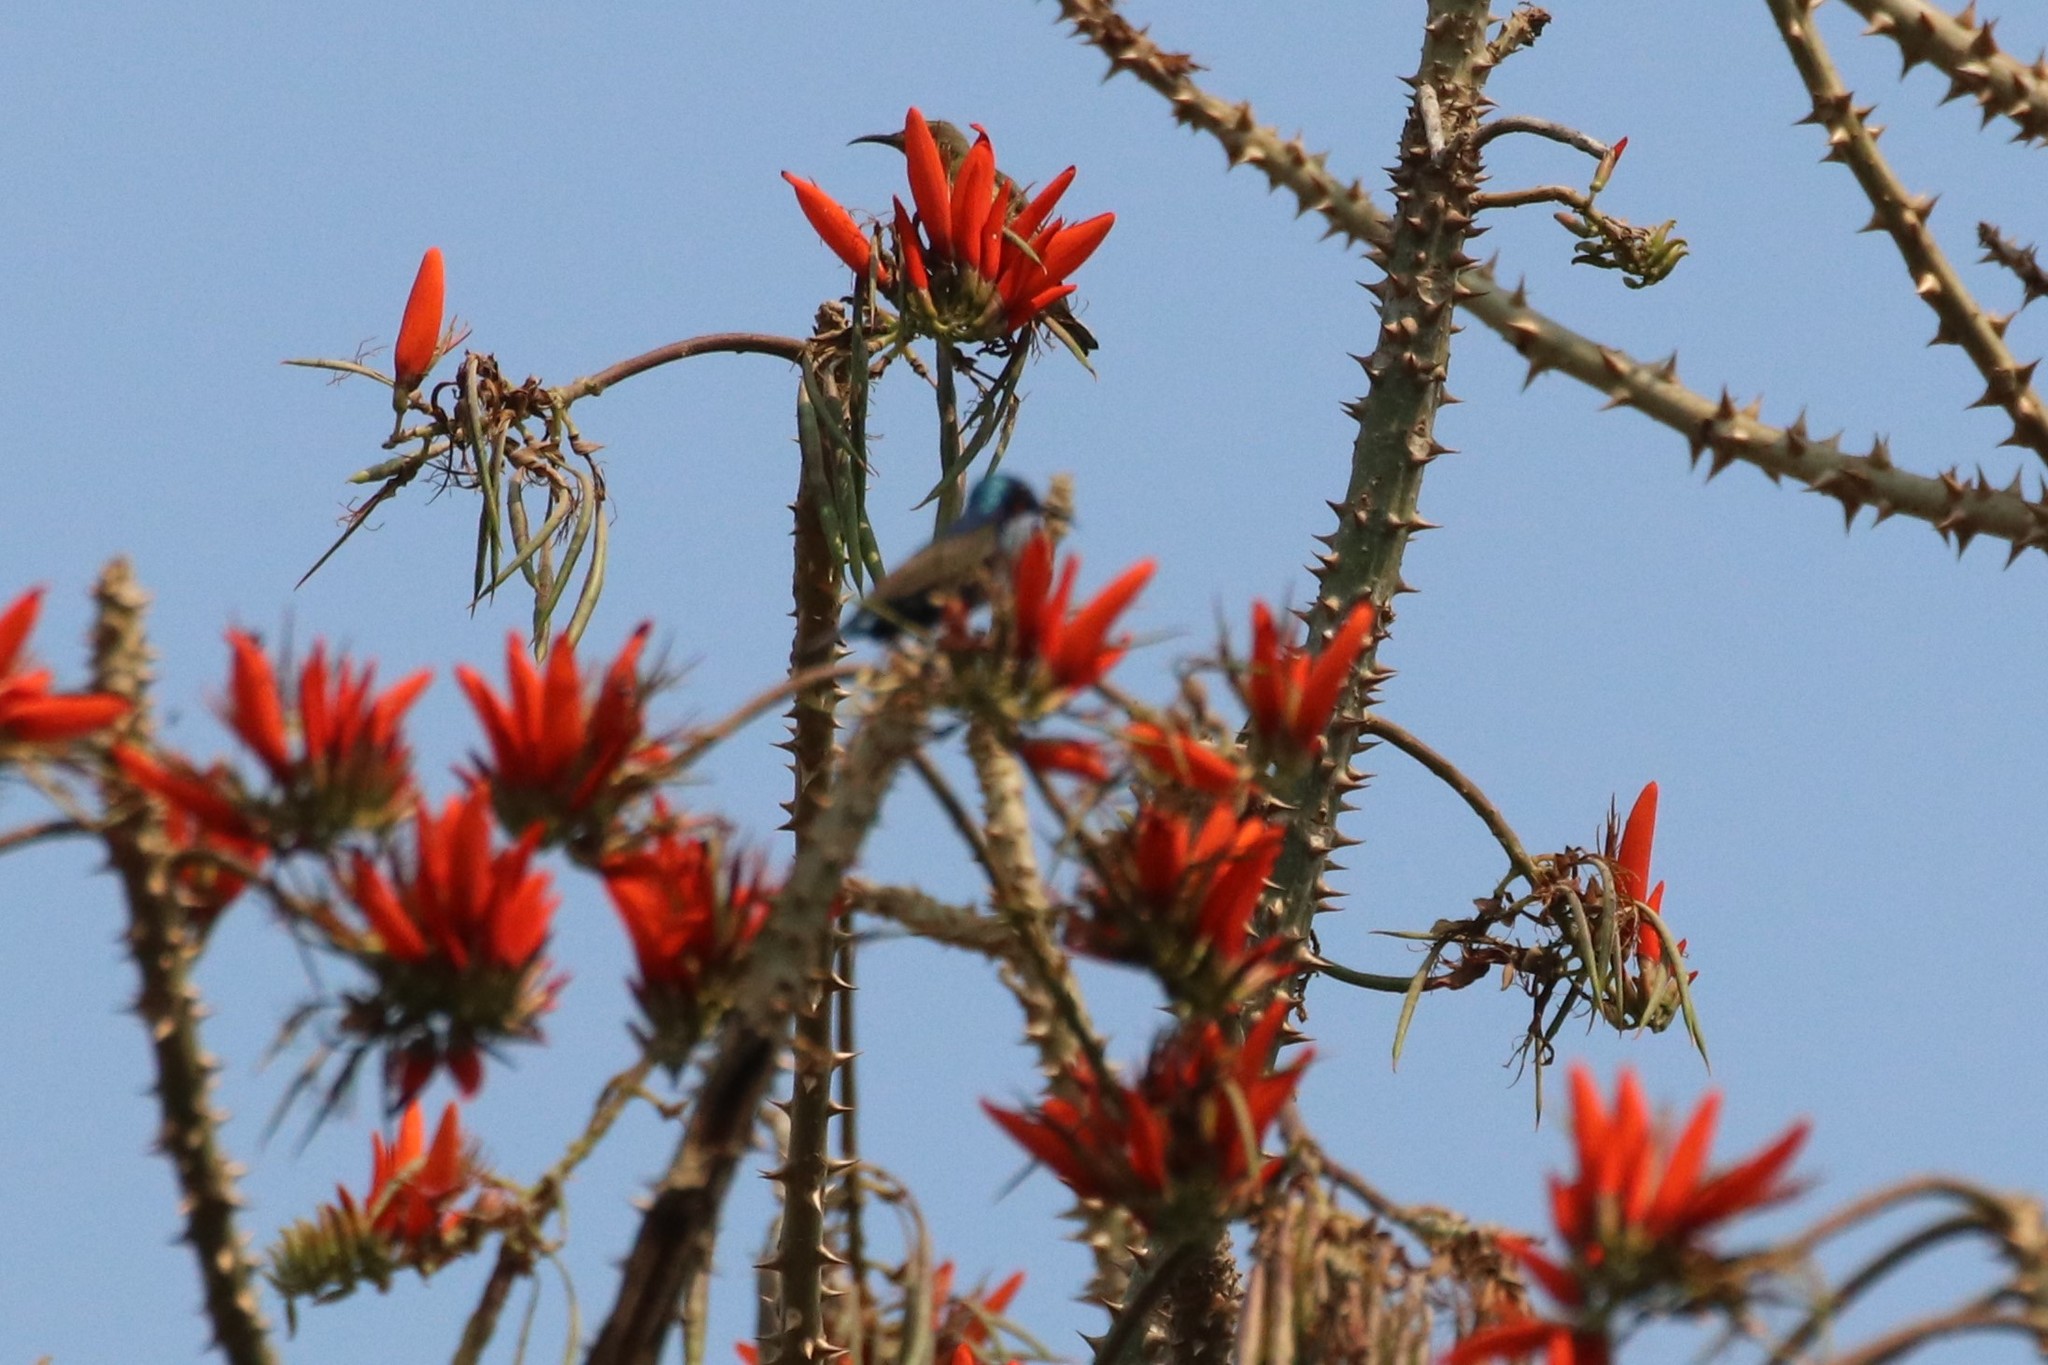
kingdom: Animalia
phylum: Chordata
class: Aves
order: Passeriformes
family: Nectariniidae
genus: Cinnyris
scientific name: Cinnyris asiaticus
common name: Purple sunbird
